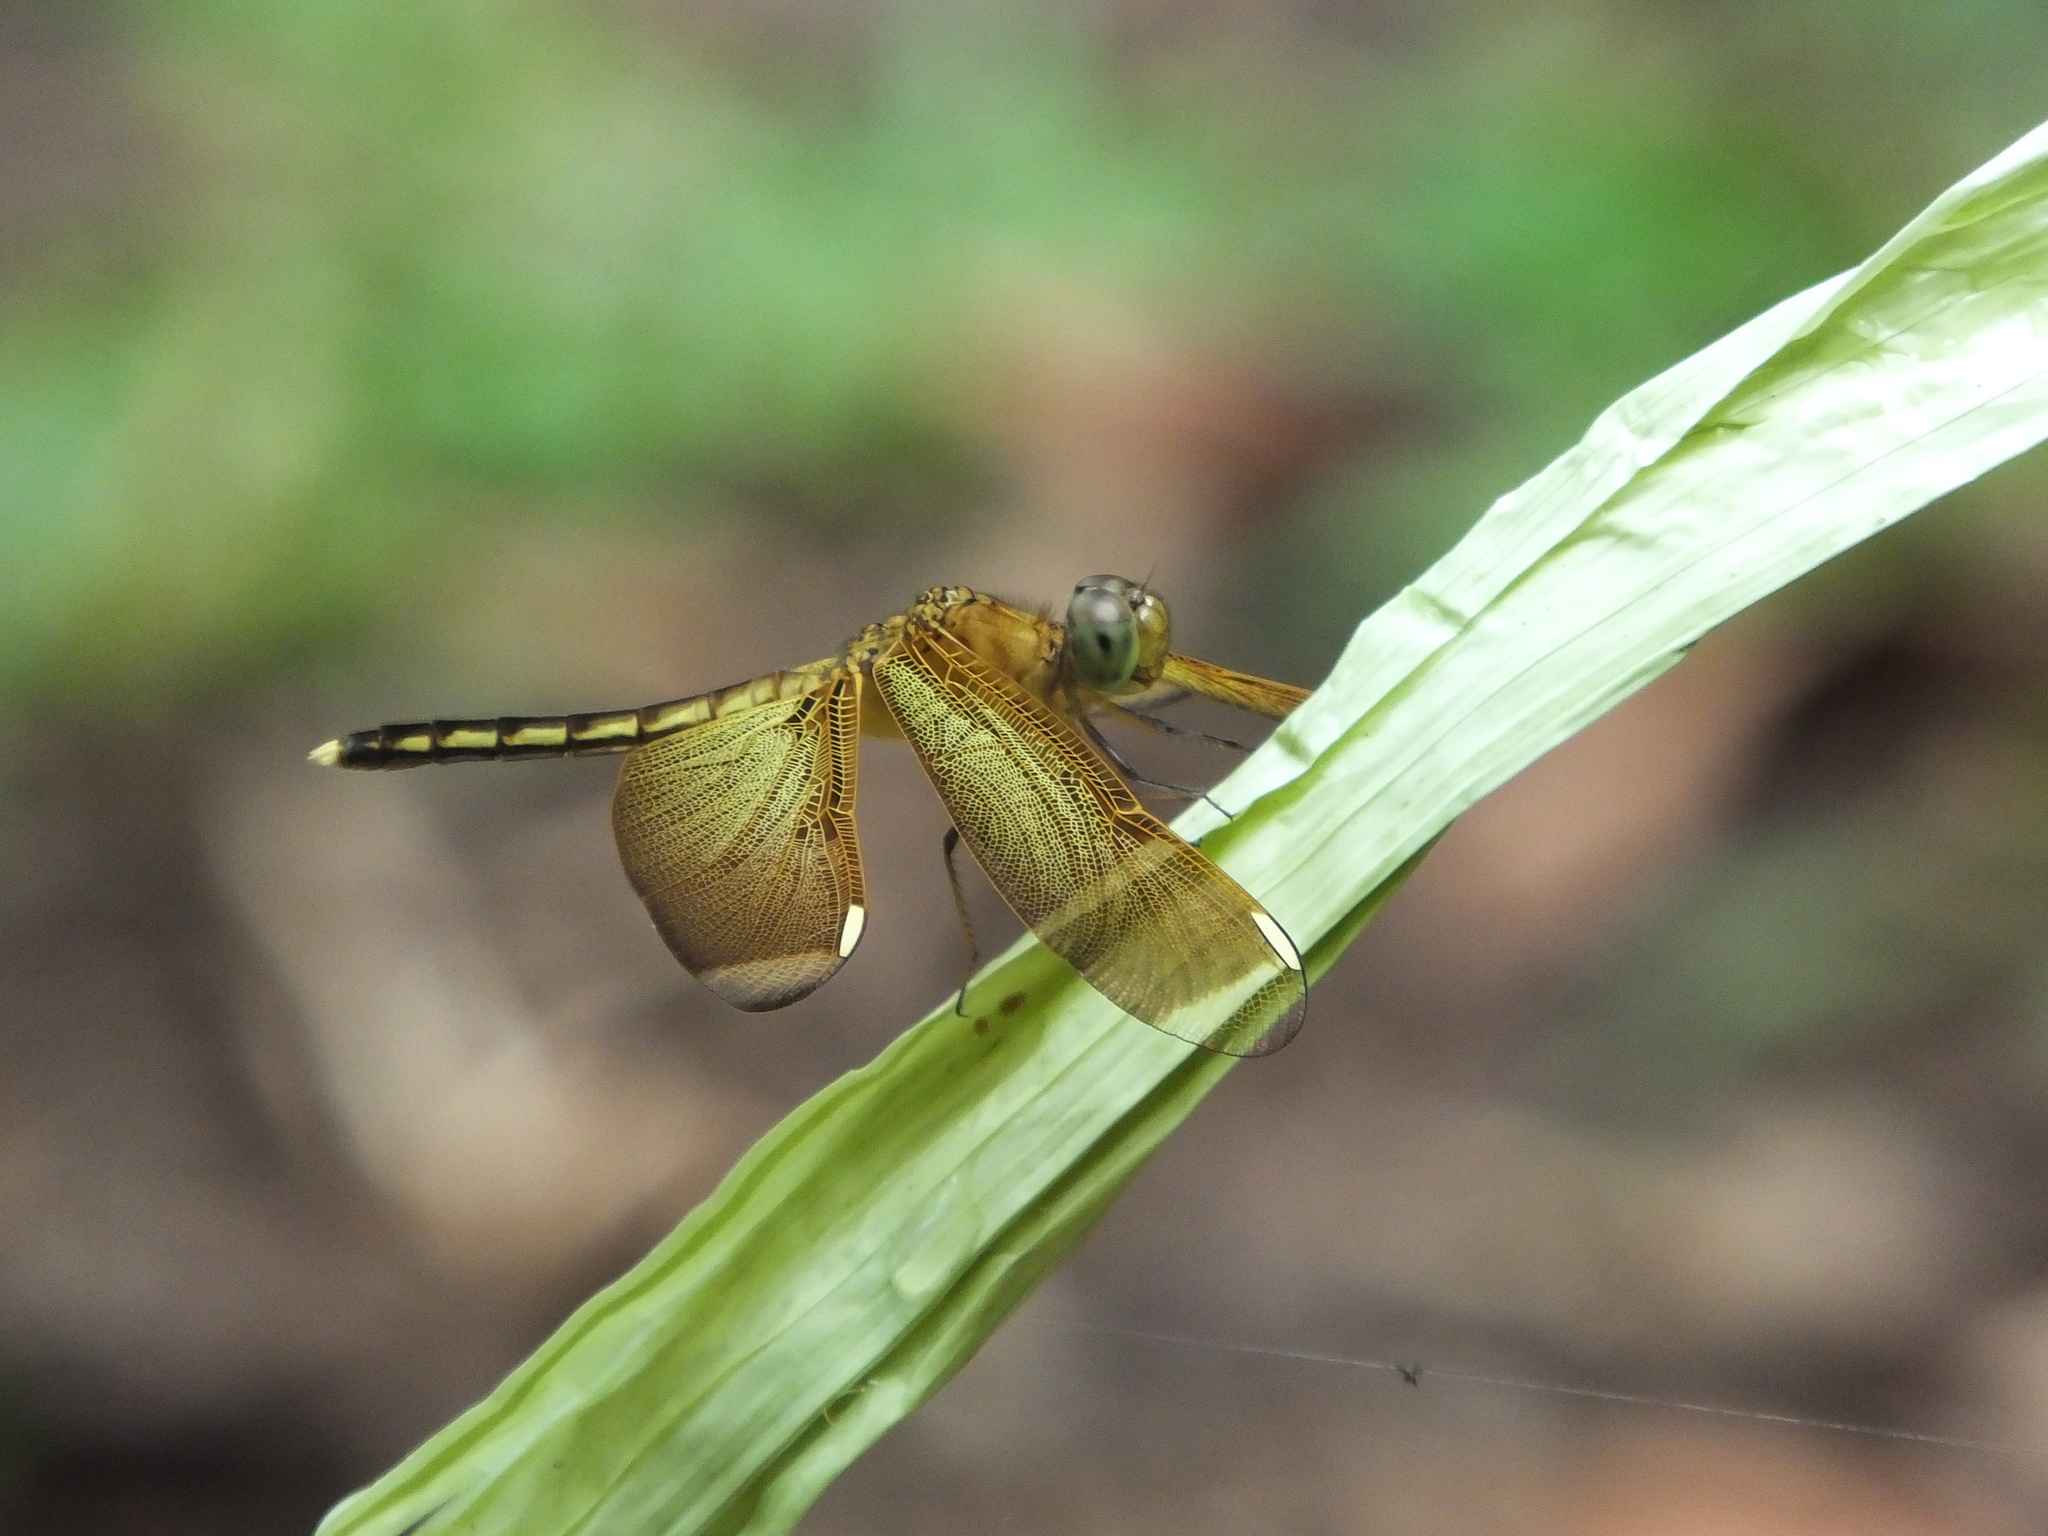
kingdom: Animalia
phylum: Arthropoda
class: Insecta
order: Odonata
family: Libellulidae
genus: Neurothemis
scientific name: Neurothemis manadensis
